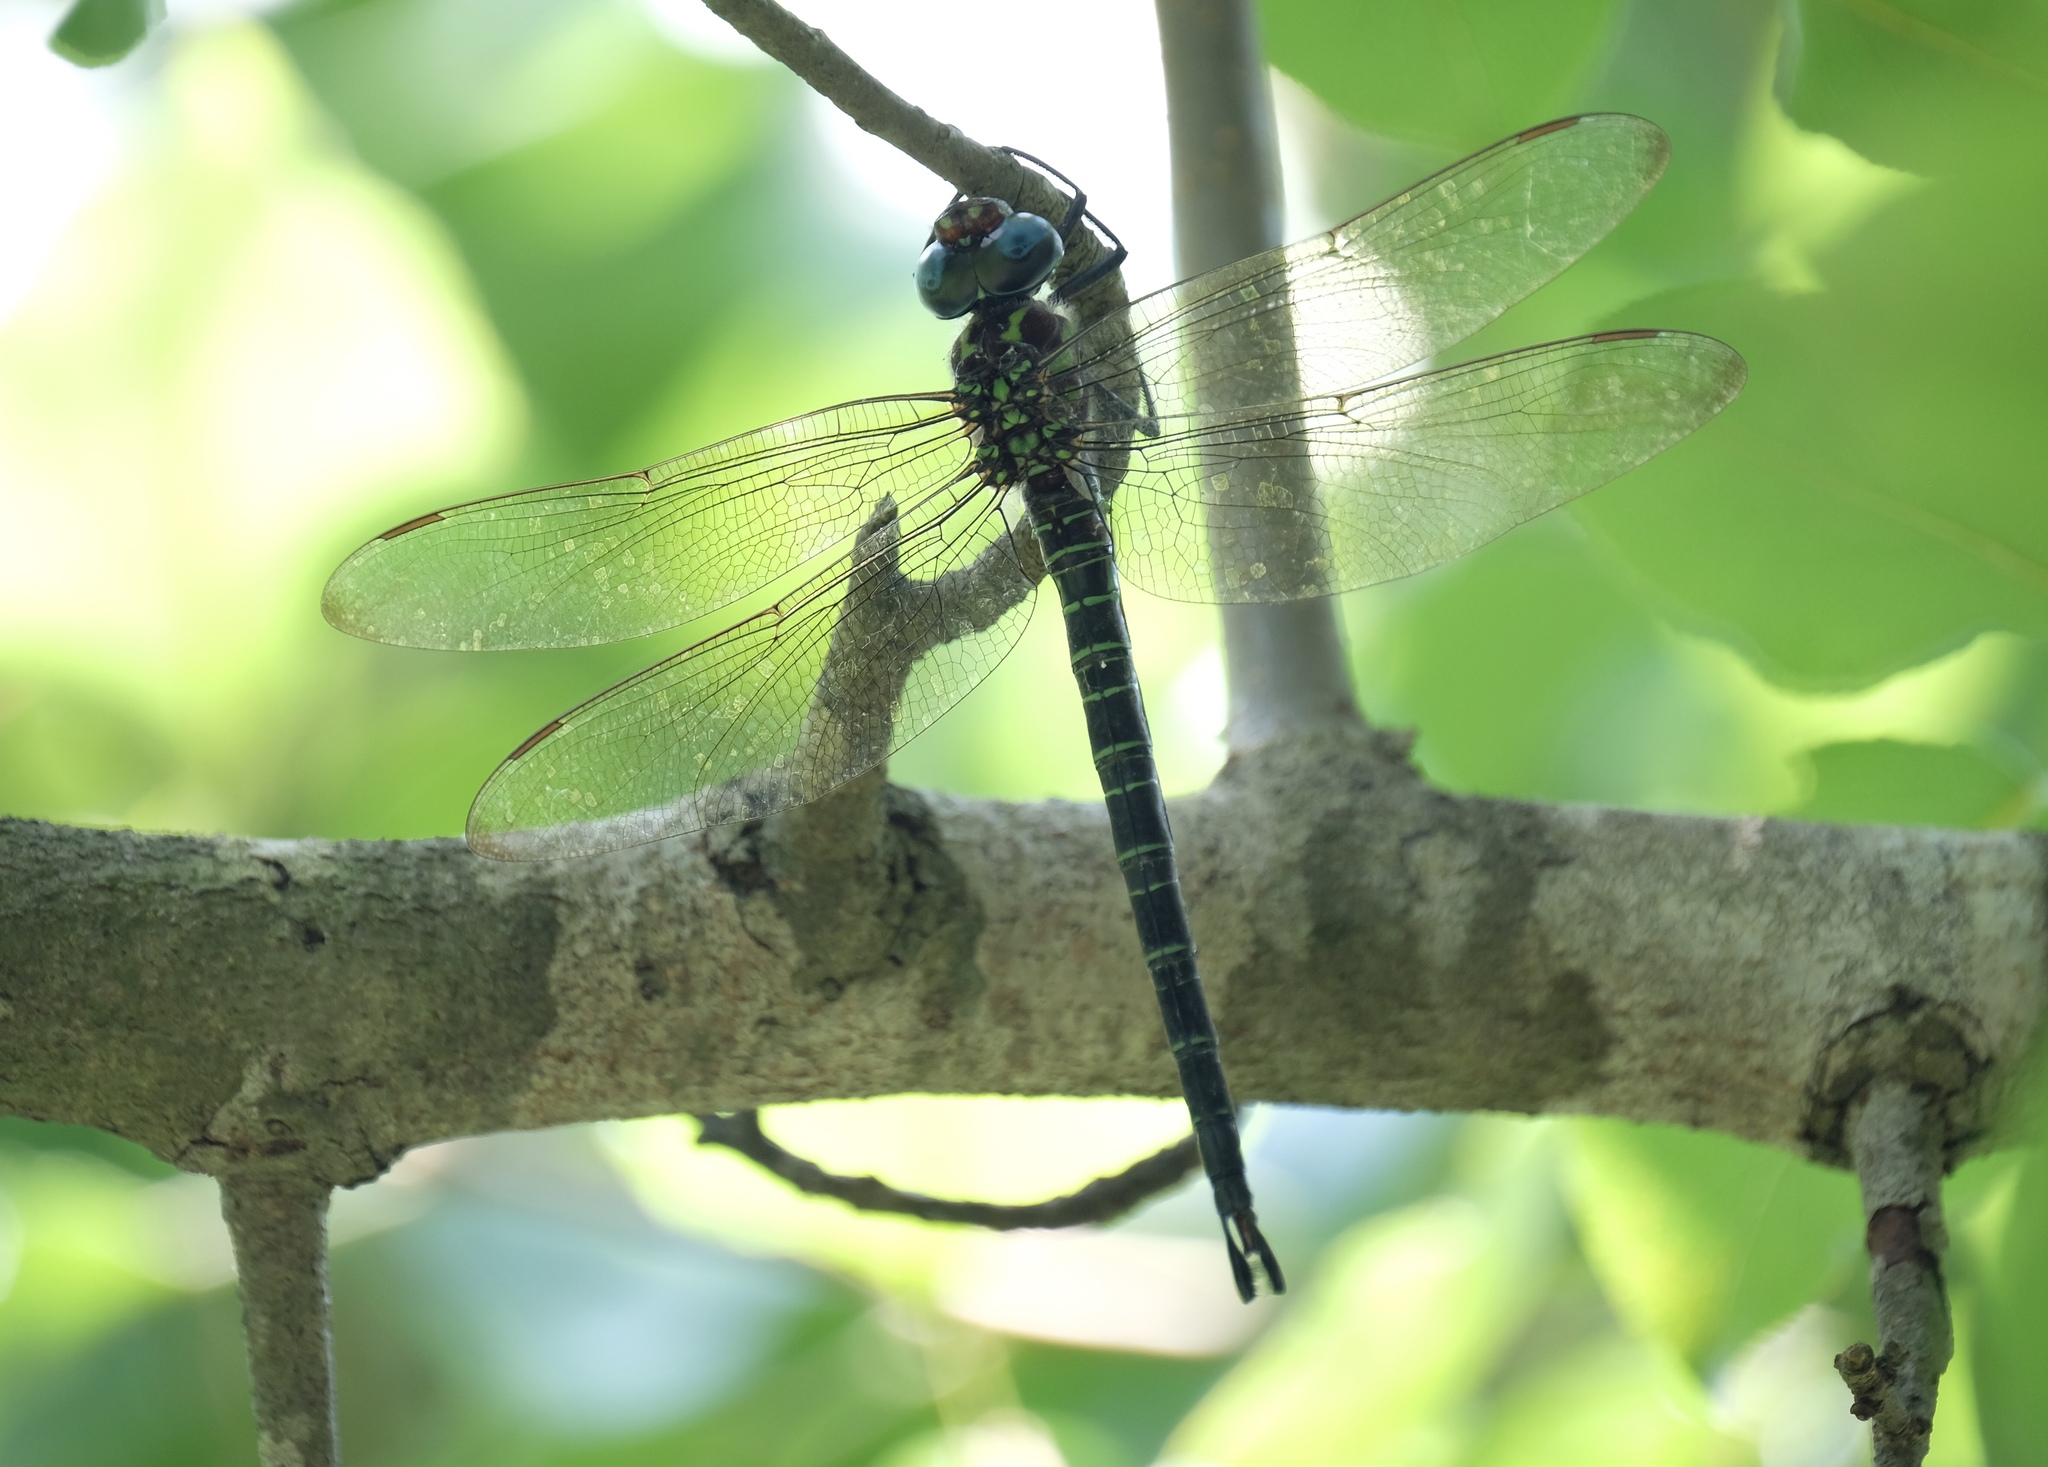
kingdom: Animalia
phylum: Arthropoda
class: Insecta
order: Odonata
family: Aeshnidae
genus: Epiaeschna
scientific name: Epiaeschna heros
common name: Swamp darner
